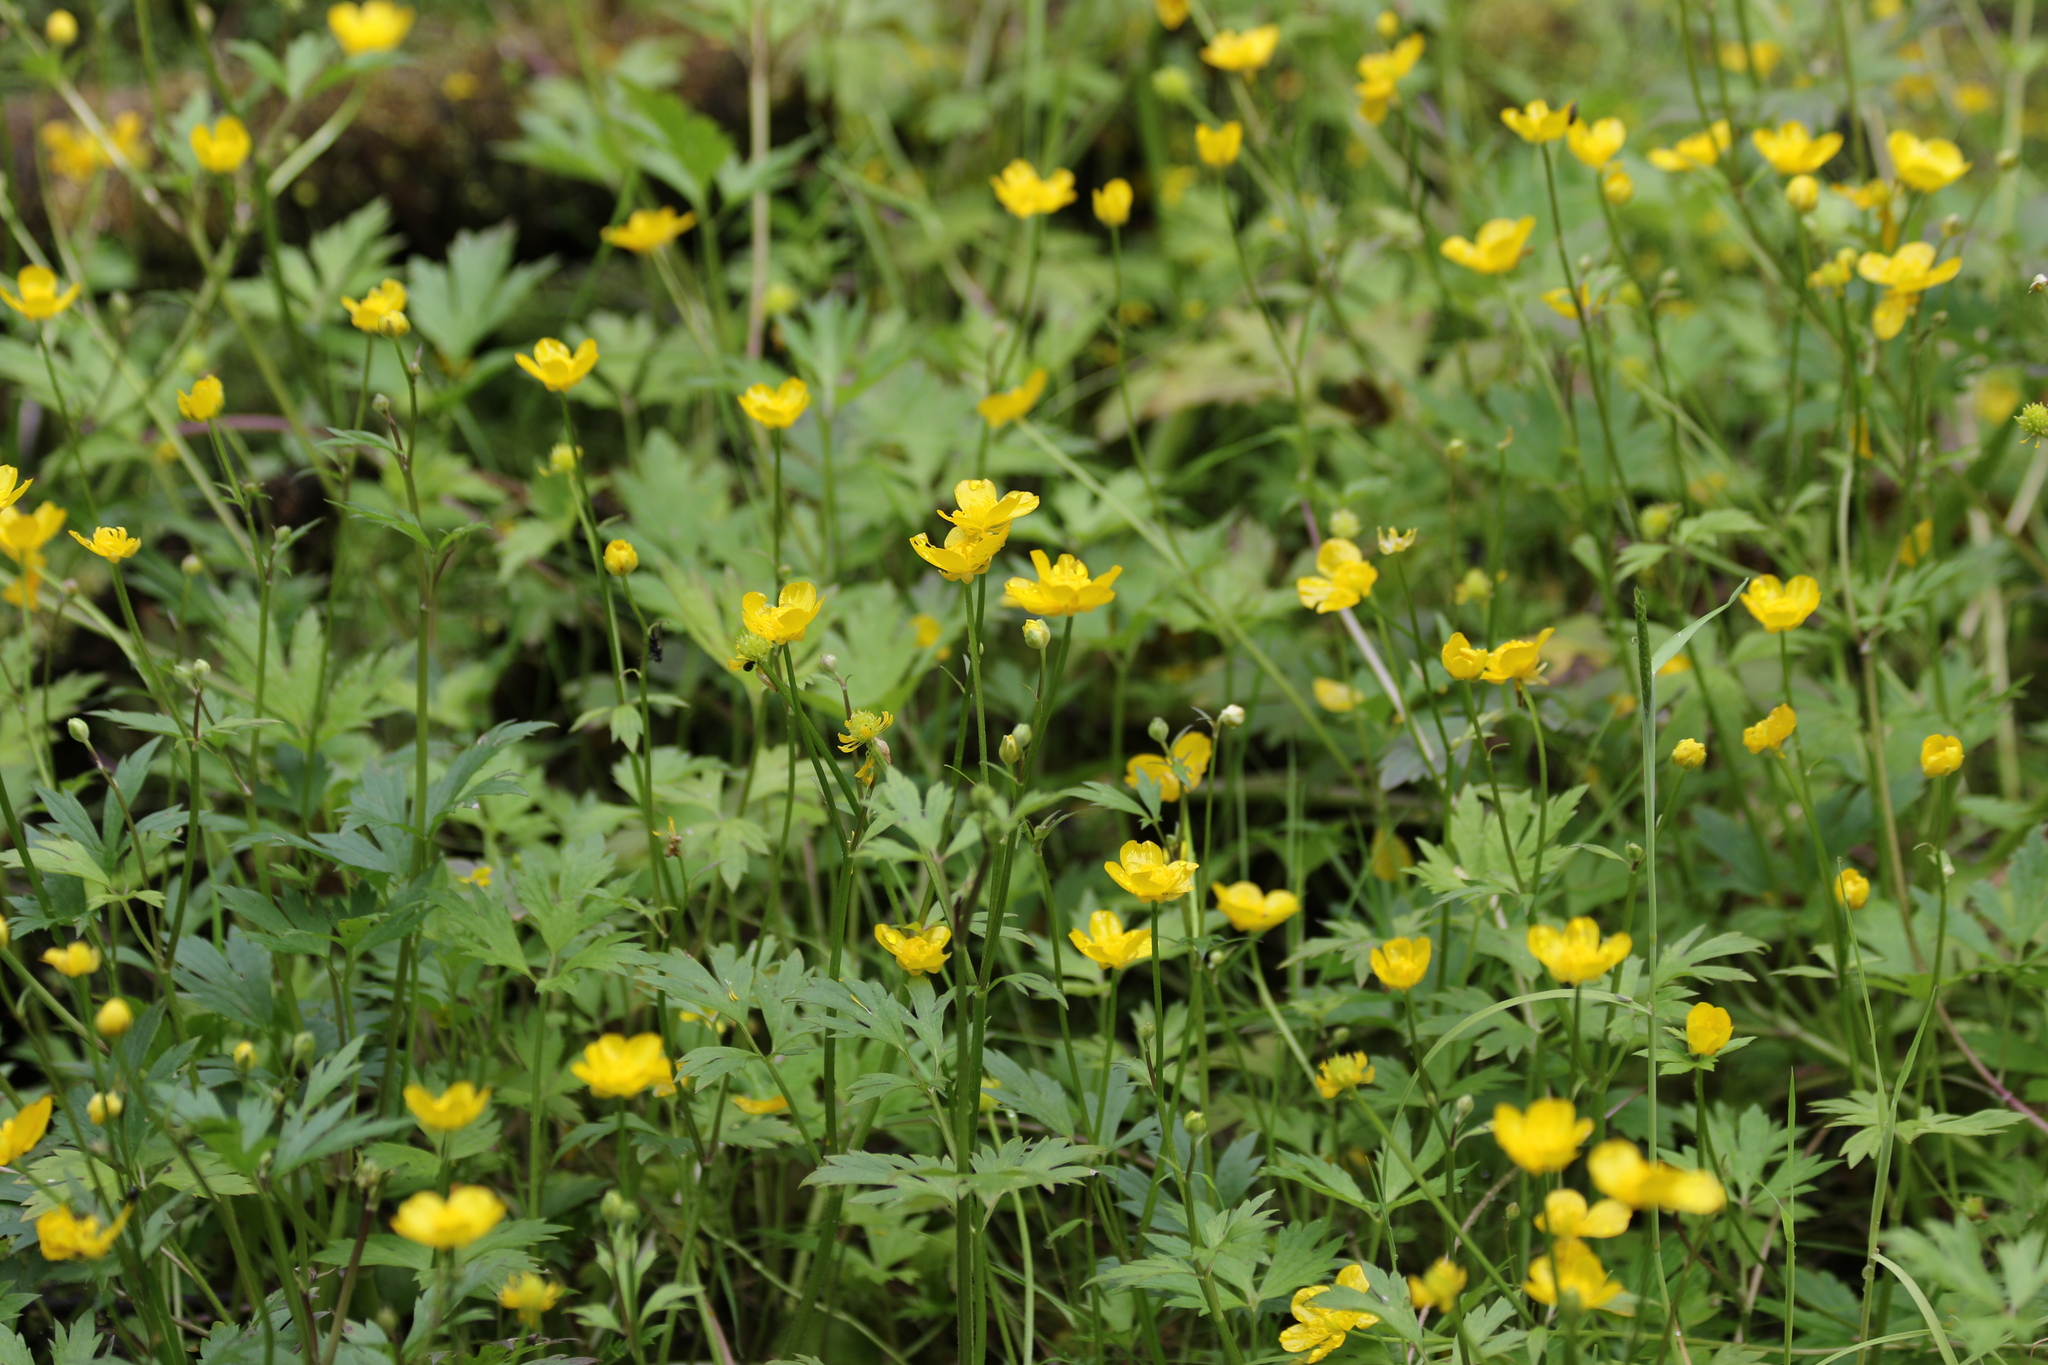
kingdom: Plantae
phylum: Tracheophyta
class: Magnoliopsida
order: Ranunculales
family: Ranunculaceae
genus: Ranunculus
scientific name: Ranunculus repens
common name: Creeping buttercup
